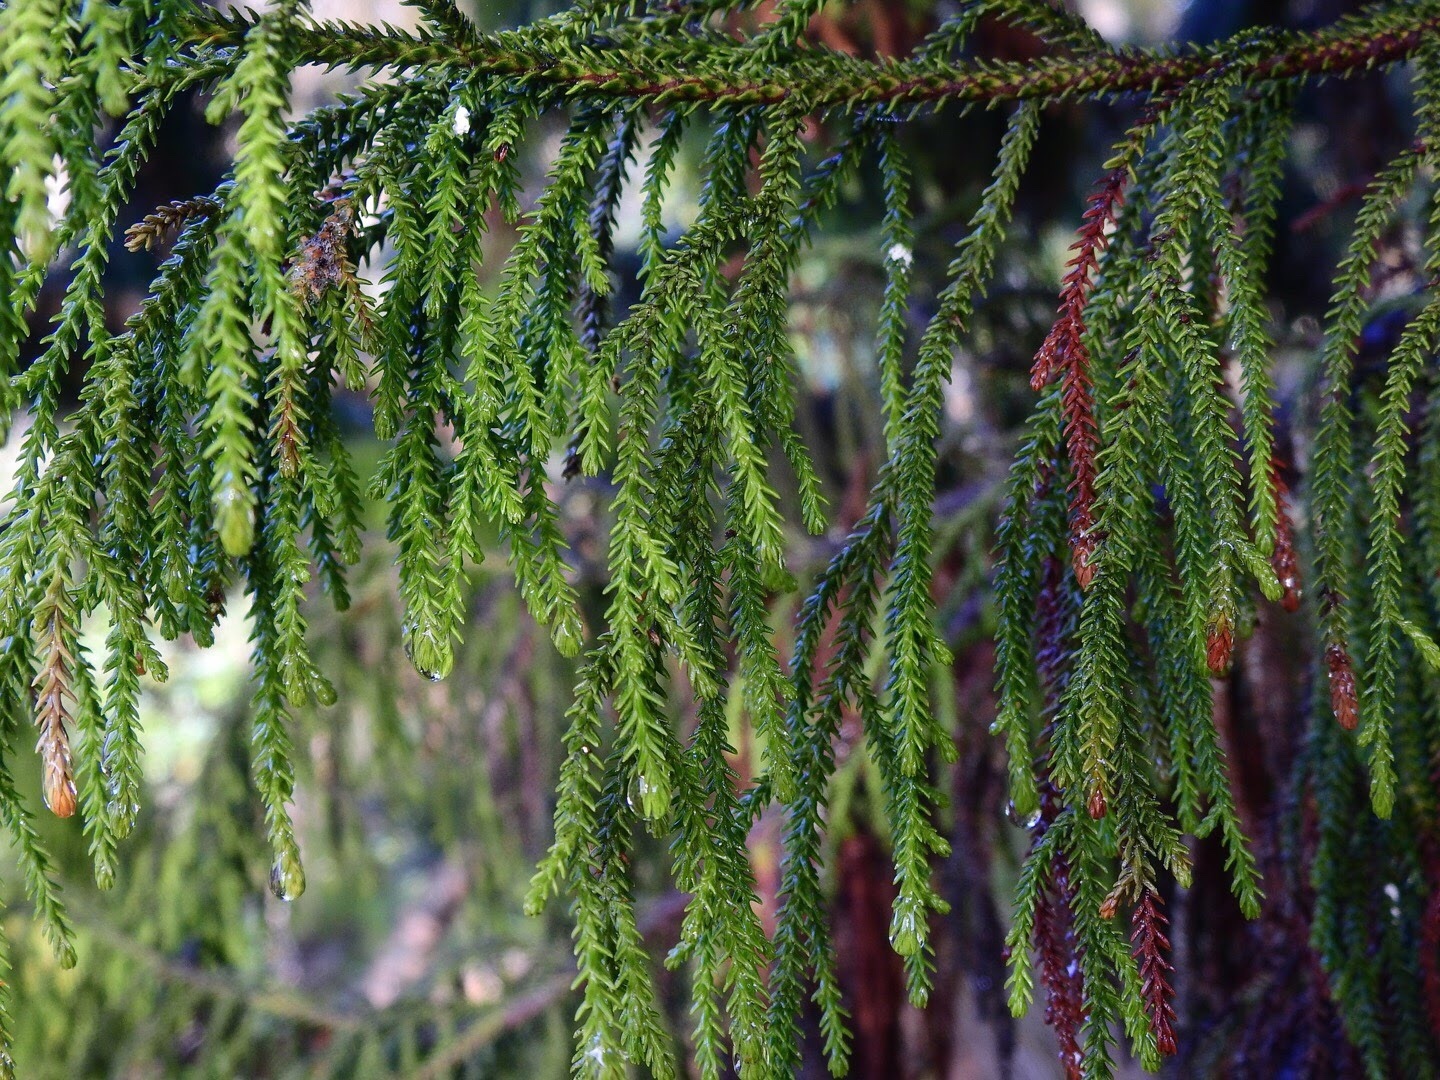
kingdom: Plantae
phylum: Tracheophyta
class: Pinopsida
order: Pinales
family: Podocarpaceae
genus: Dacrydium
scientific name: Dacrydium cupressinum
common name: Red pine
